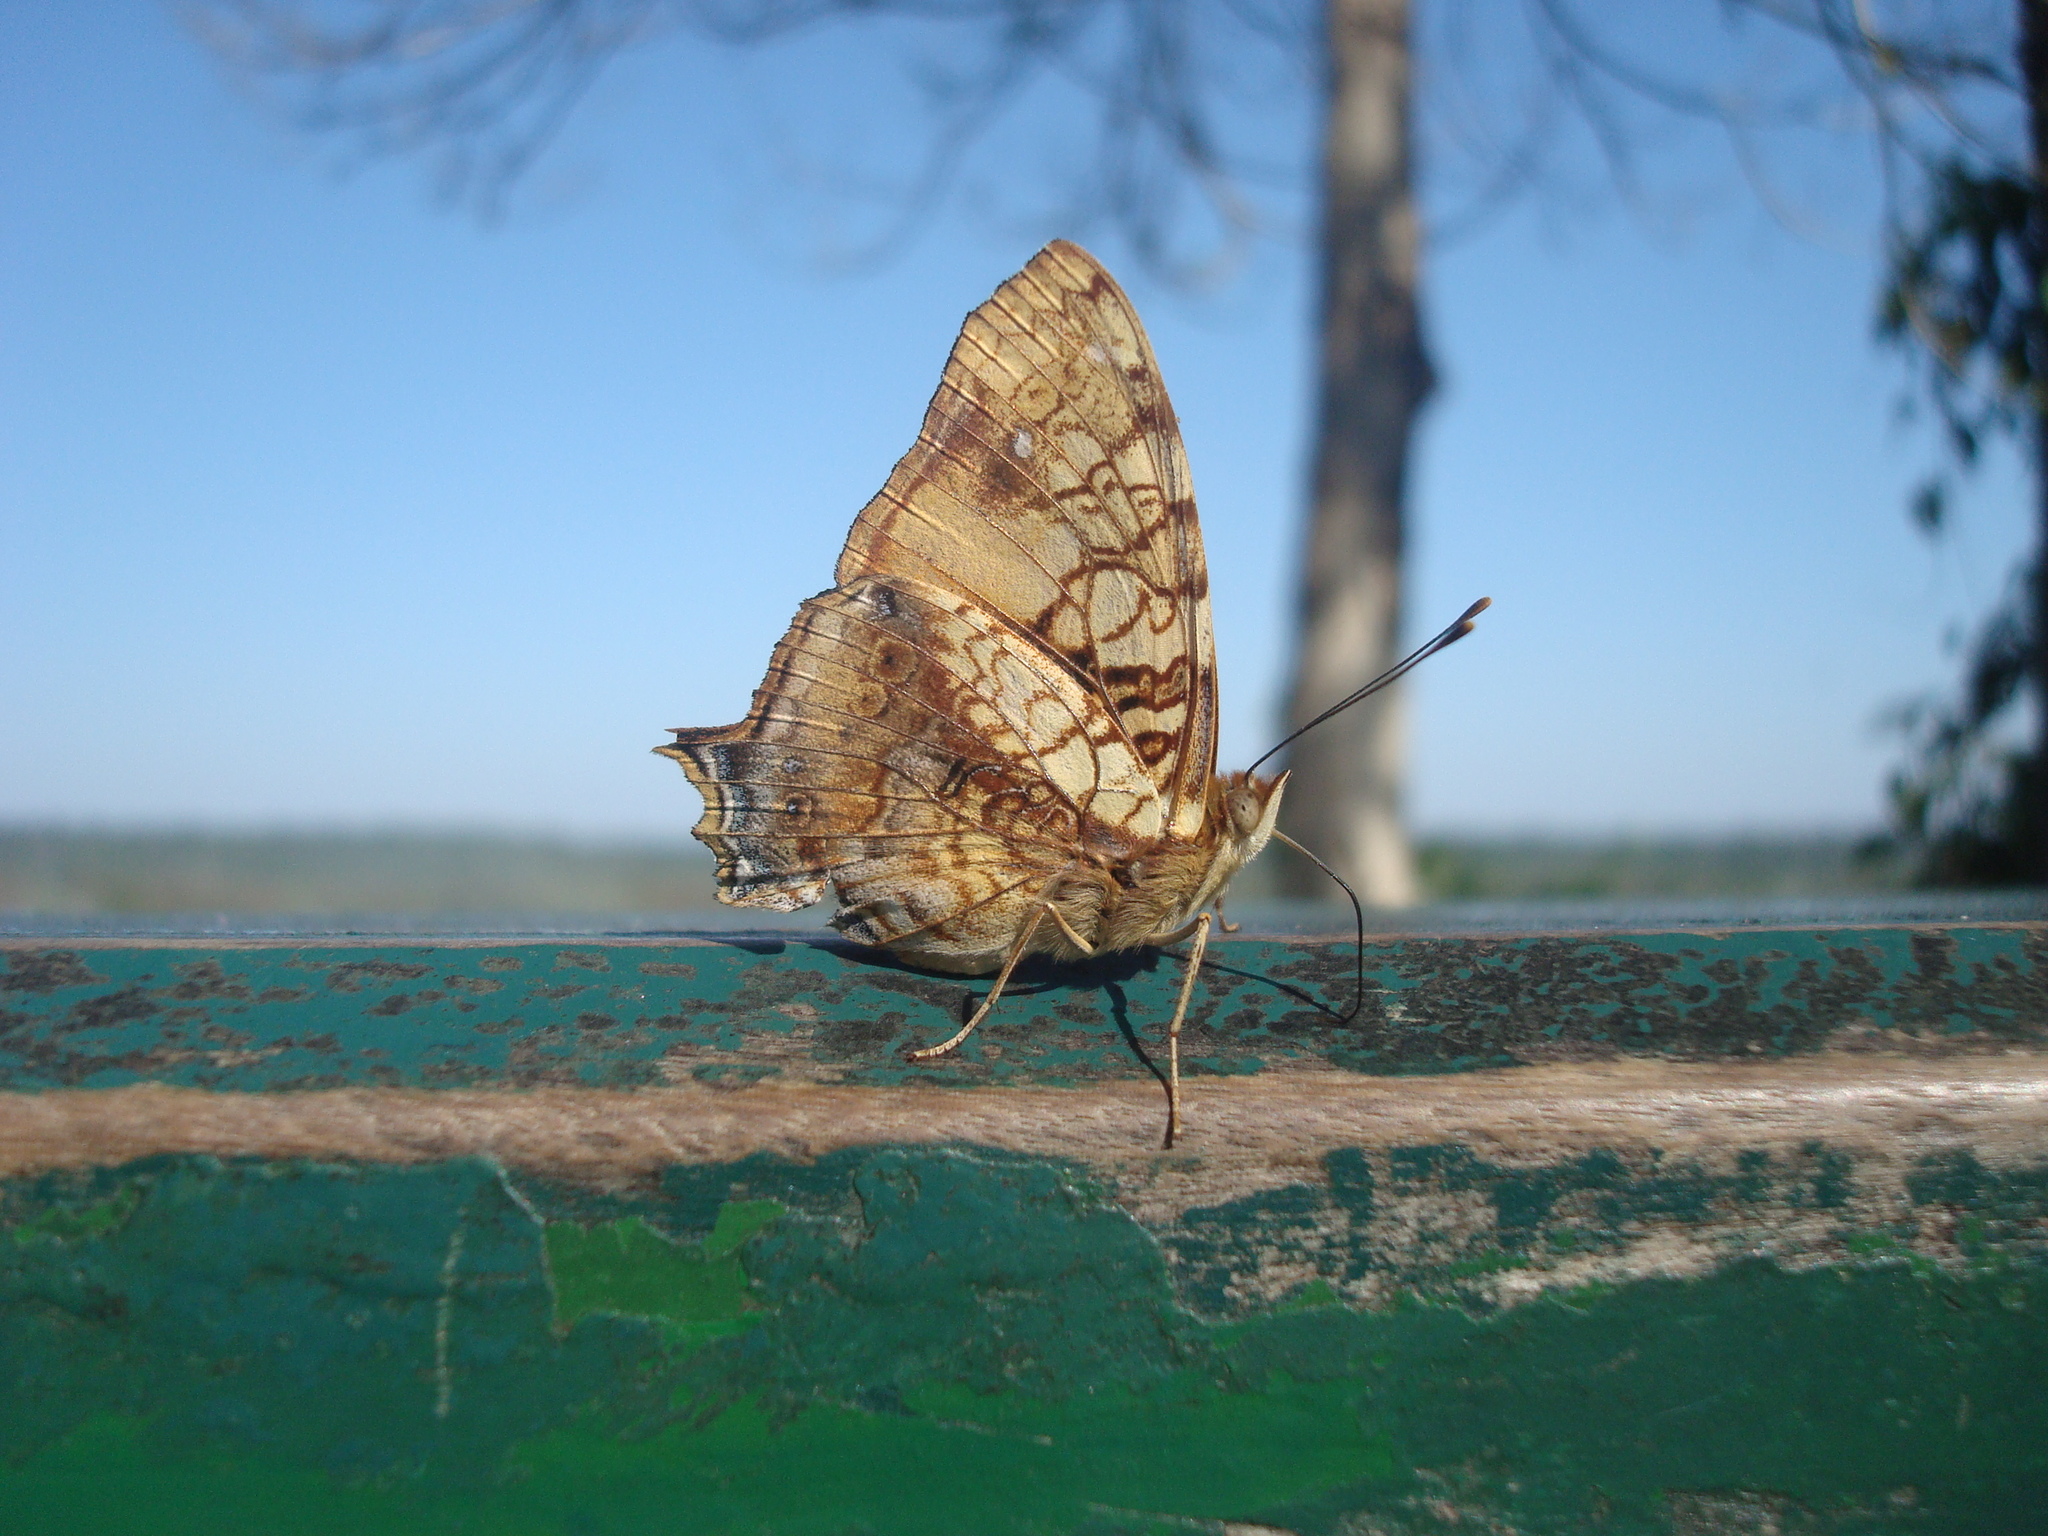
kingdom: Animalia
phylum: Arthropoda
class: Insecta
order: Lepidoptera
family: Nymphalidae
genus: Hypanartia
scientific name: Hypanartia lethe
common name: Orange mapwing
